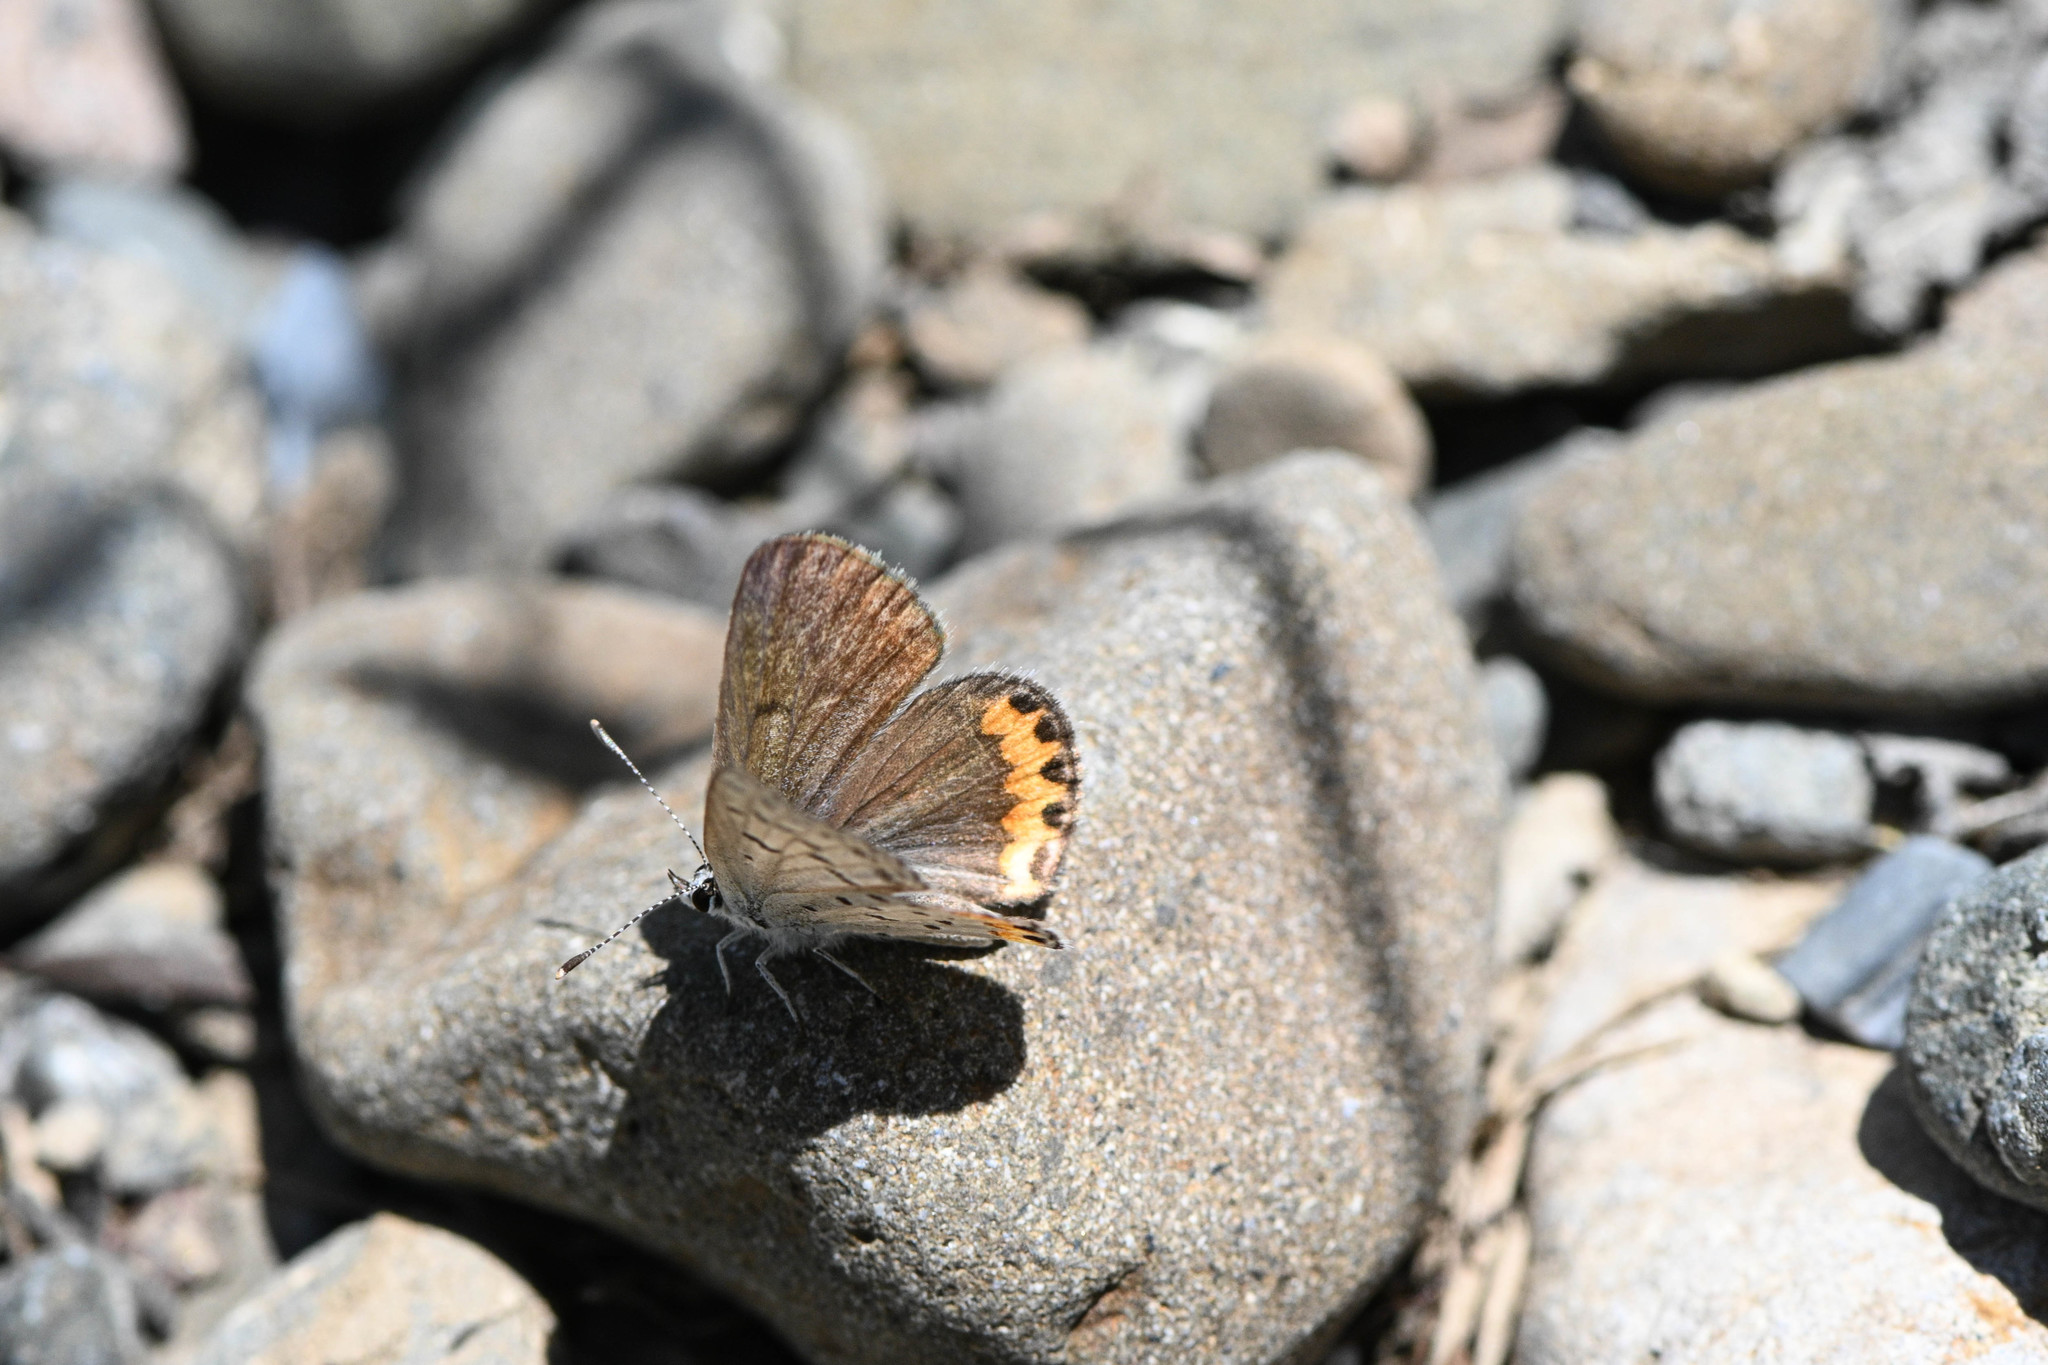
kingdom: Animalia
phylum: Arthropoda
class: Insecta
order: Lepidoptera
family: Lycaenidae
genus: Icaricia
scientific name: Icaricia acmon
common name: Acmon blue
